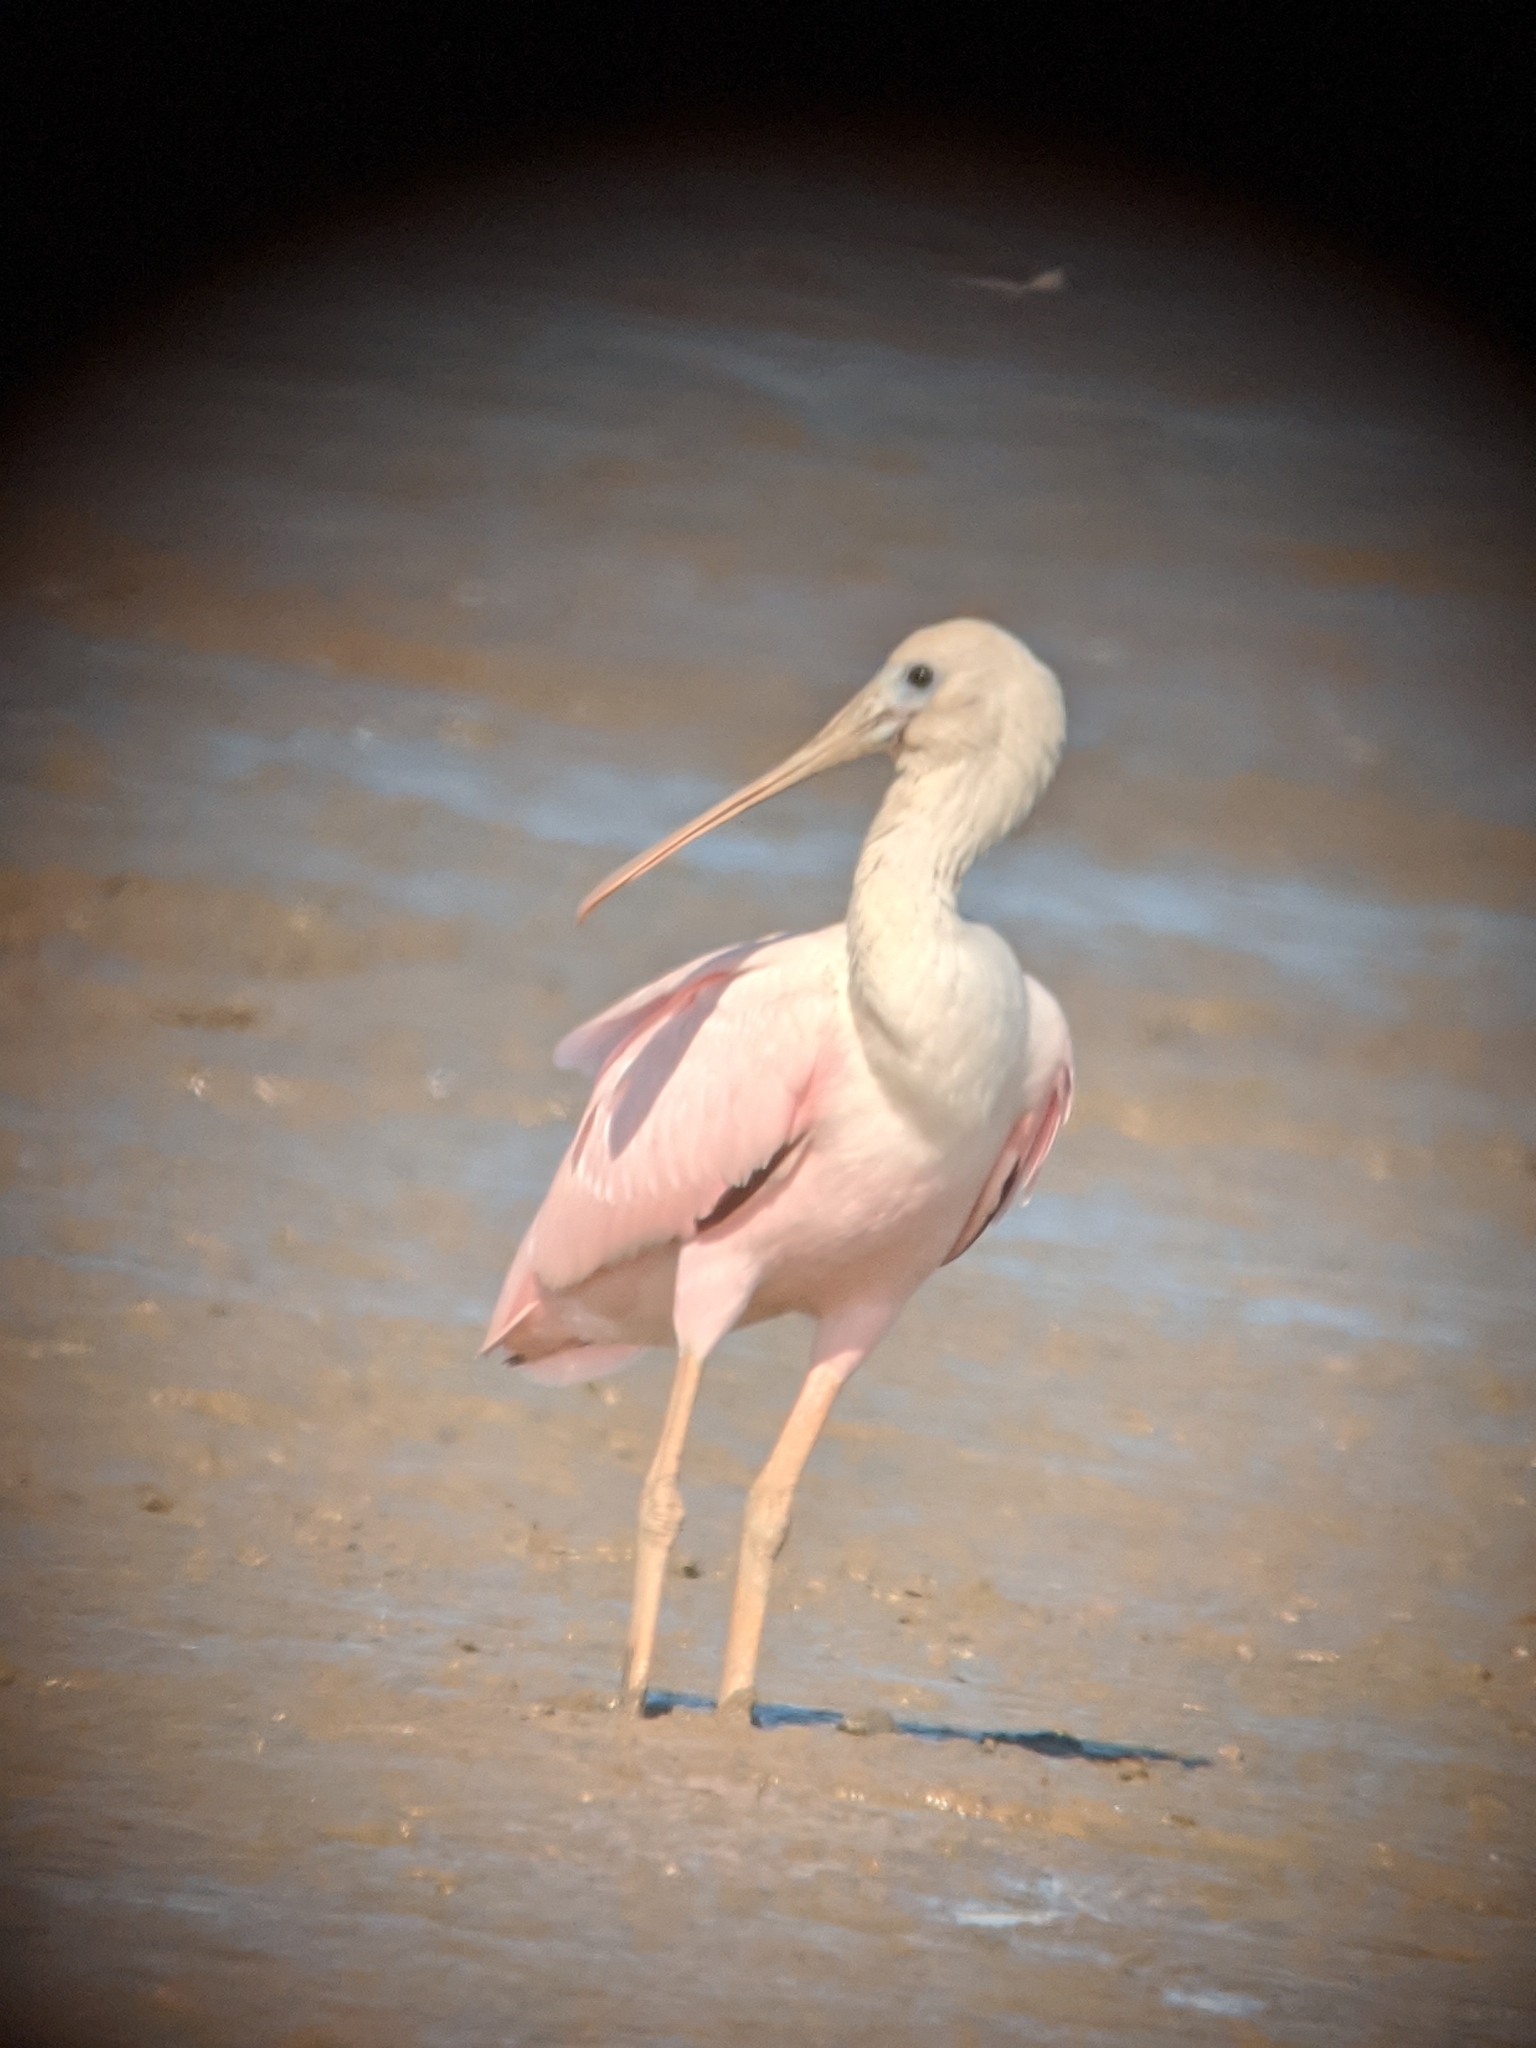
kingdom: Animalia
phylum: Chordata
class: Aves
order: Pelecaniformes
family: Threskiornithidae
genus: Platalea
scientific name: Platalea ajaja
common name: Roseate spoonbill
